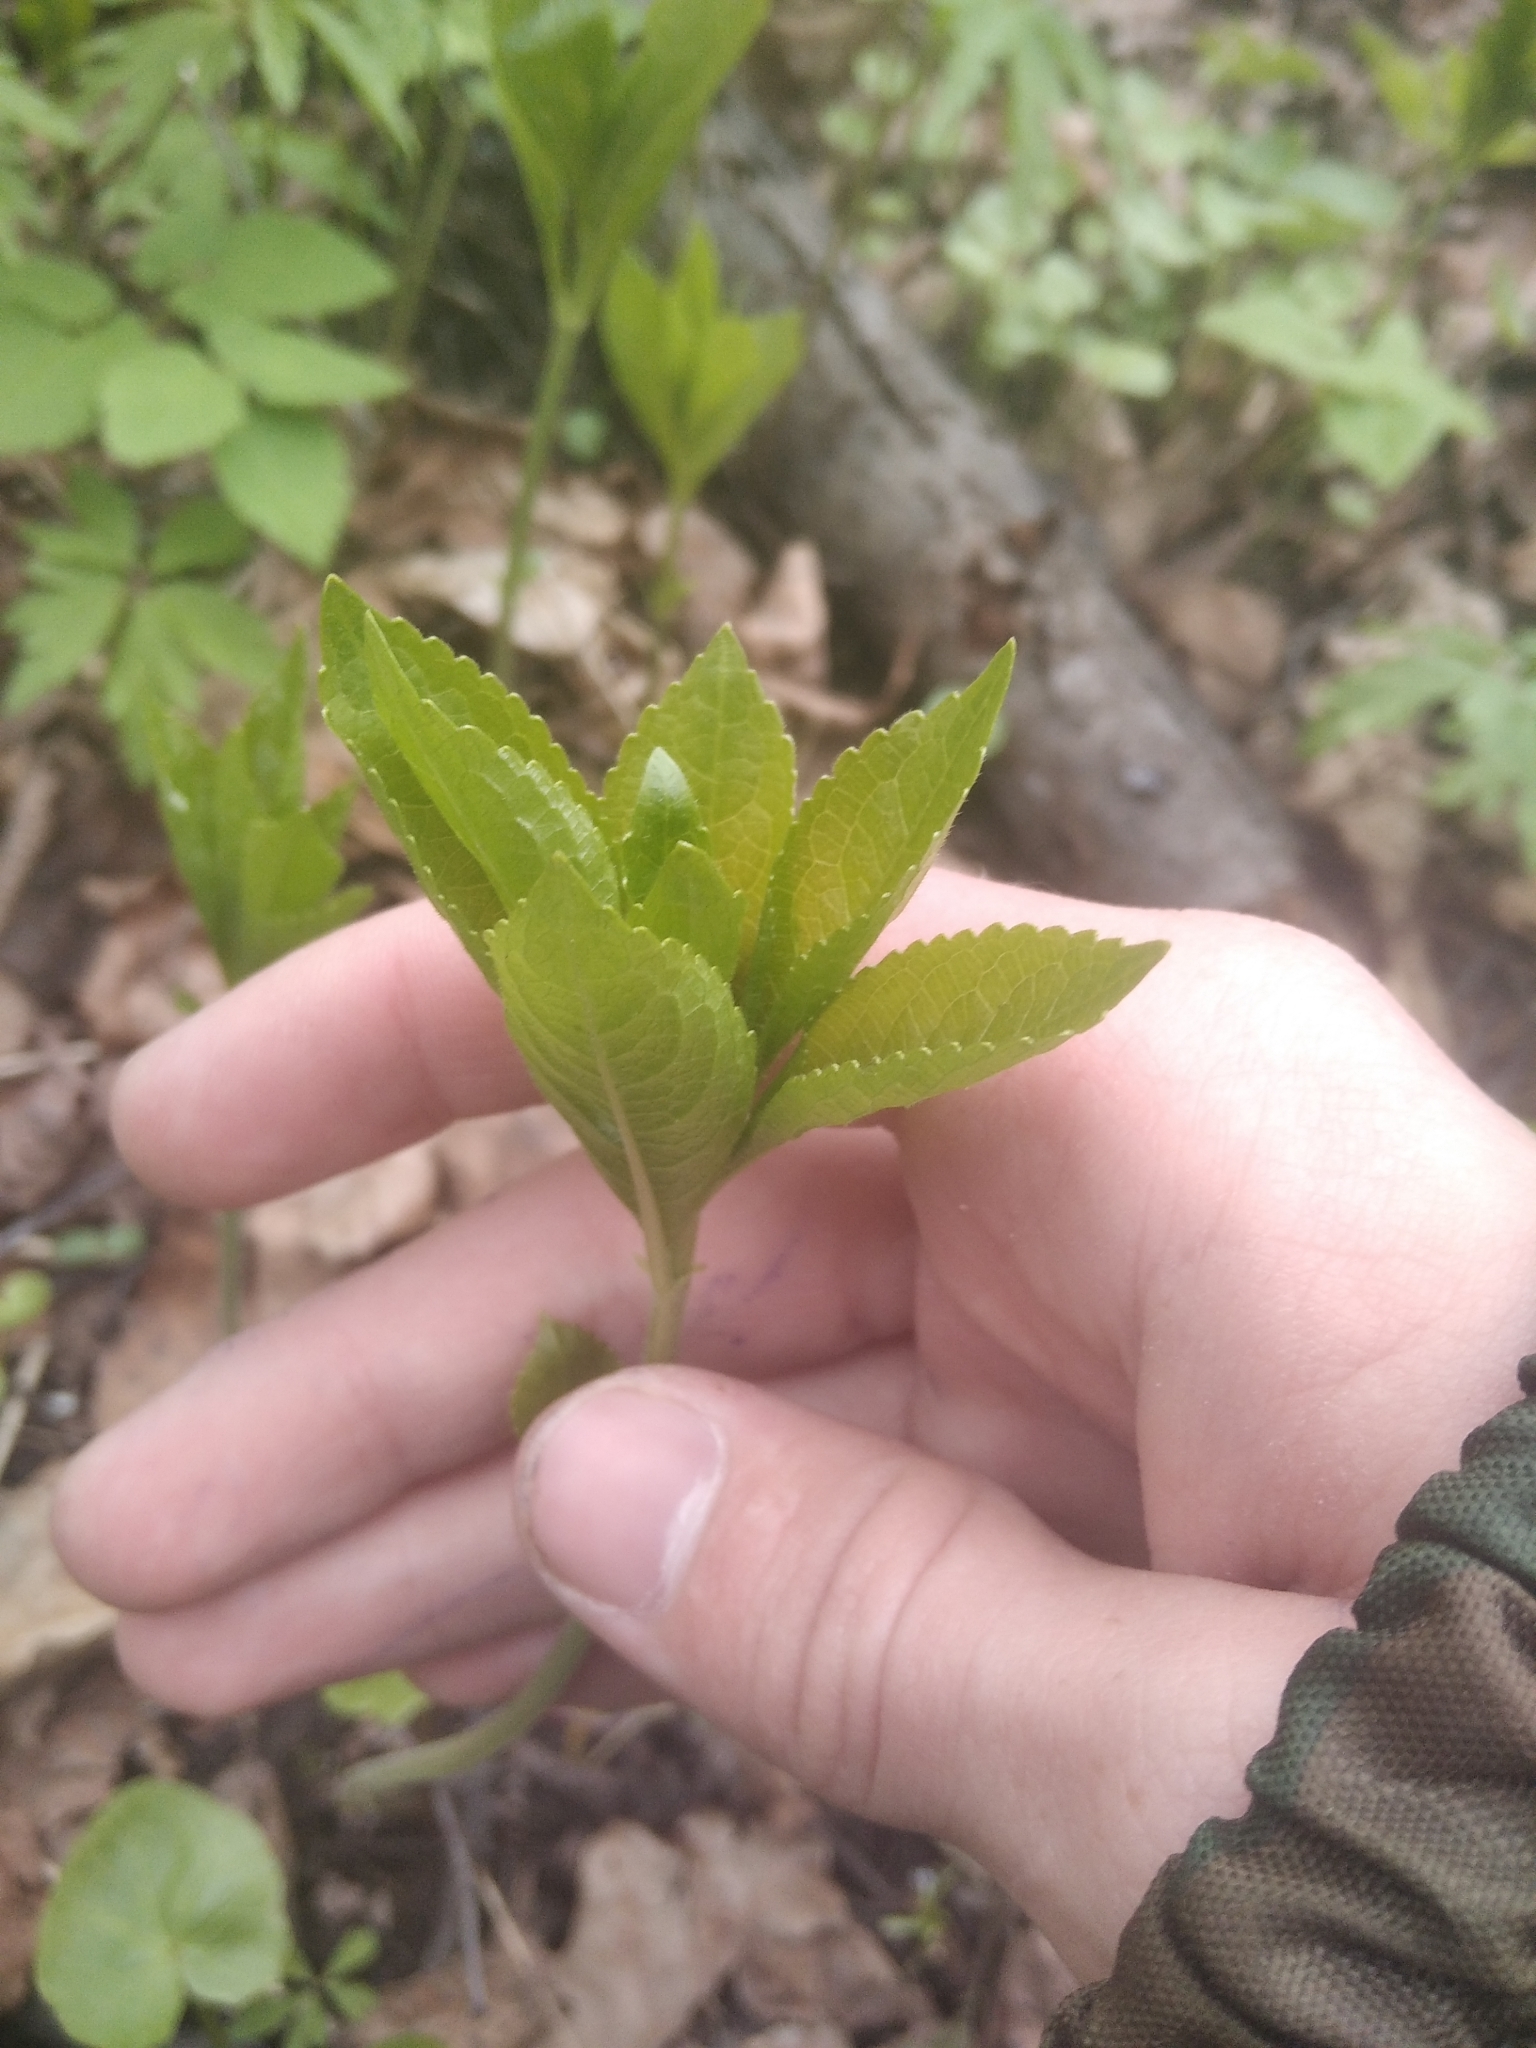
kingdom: Plantae
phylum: Tracheophyta
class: Magnoliopsida
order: Malpighiales
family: Euphorbiaceae
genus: Mercurialis
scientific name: Mercurialis perennis
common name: Dog mercury
